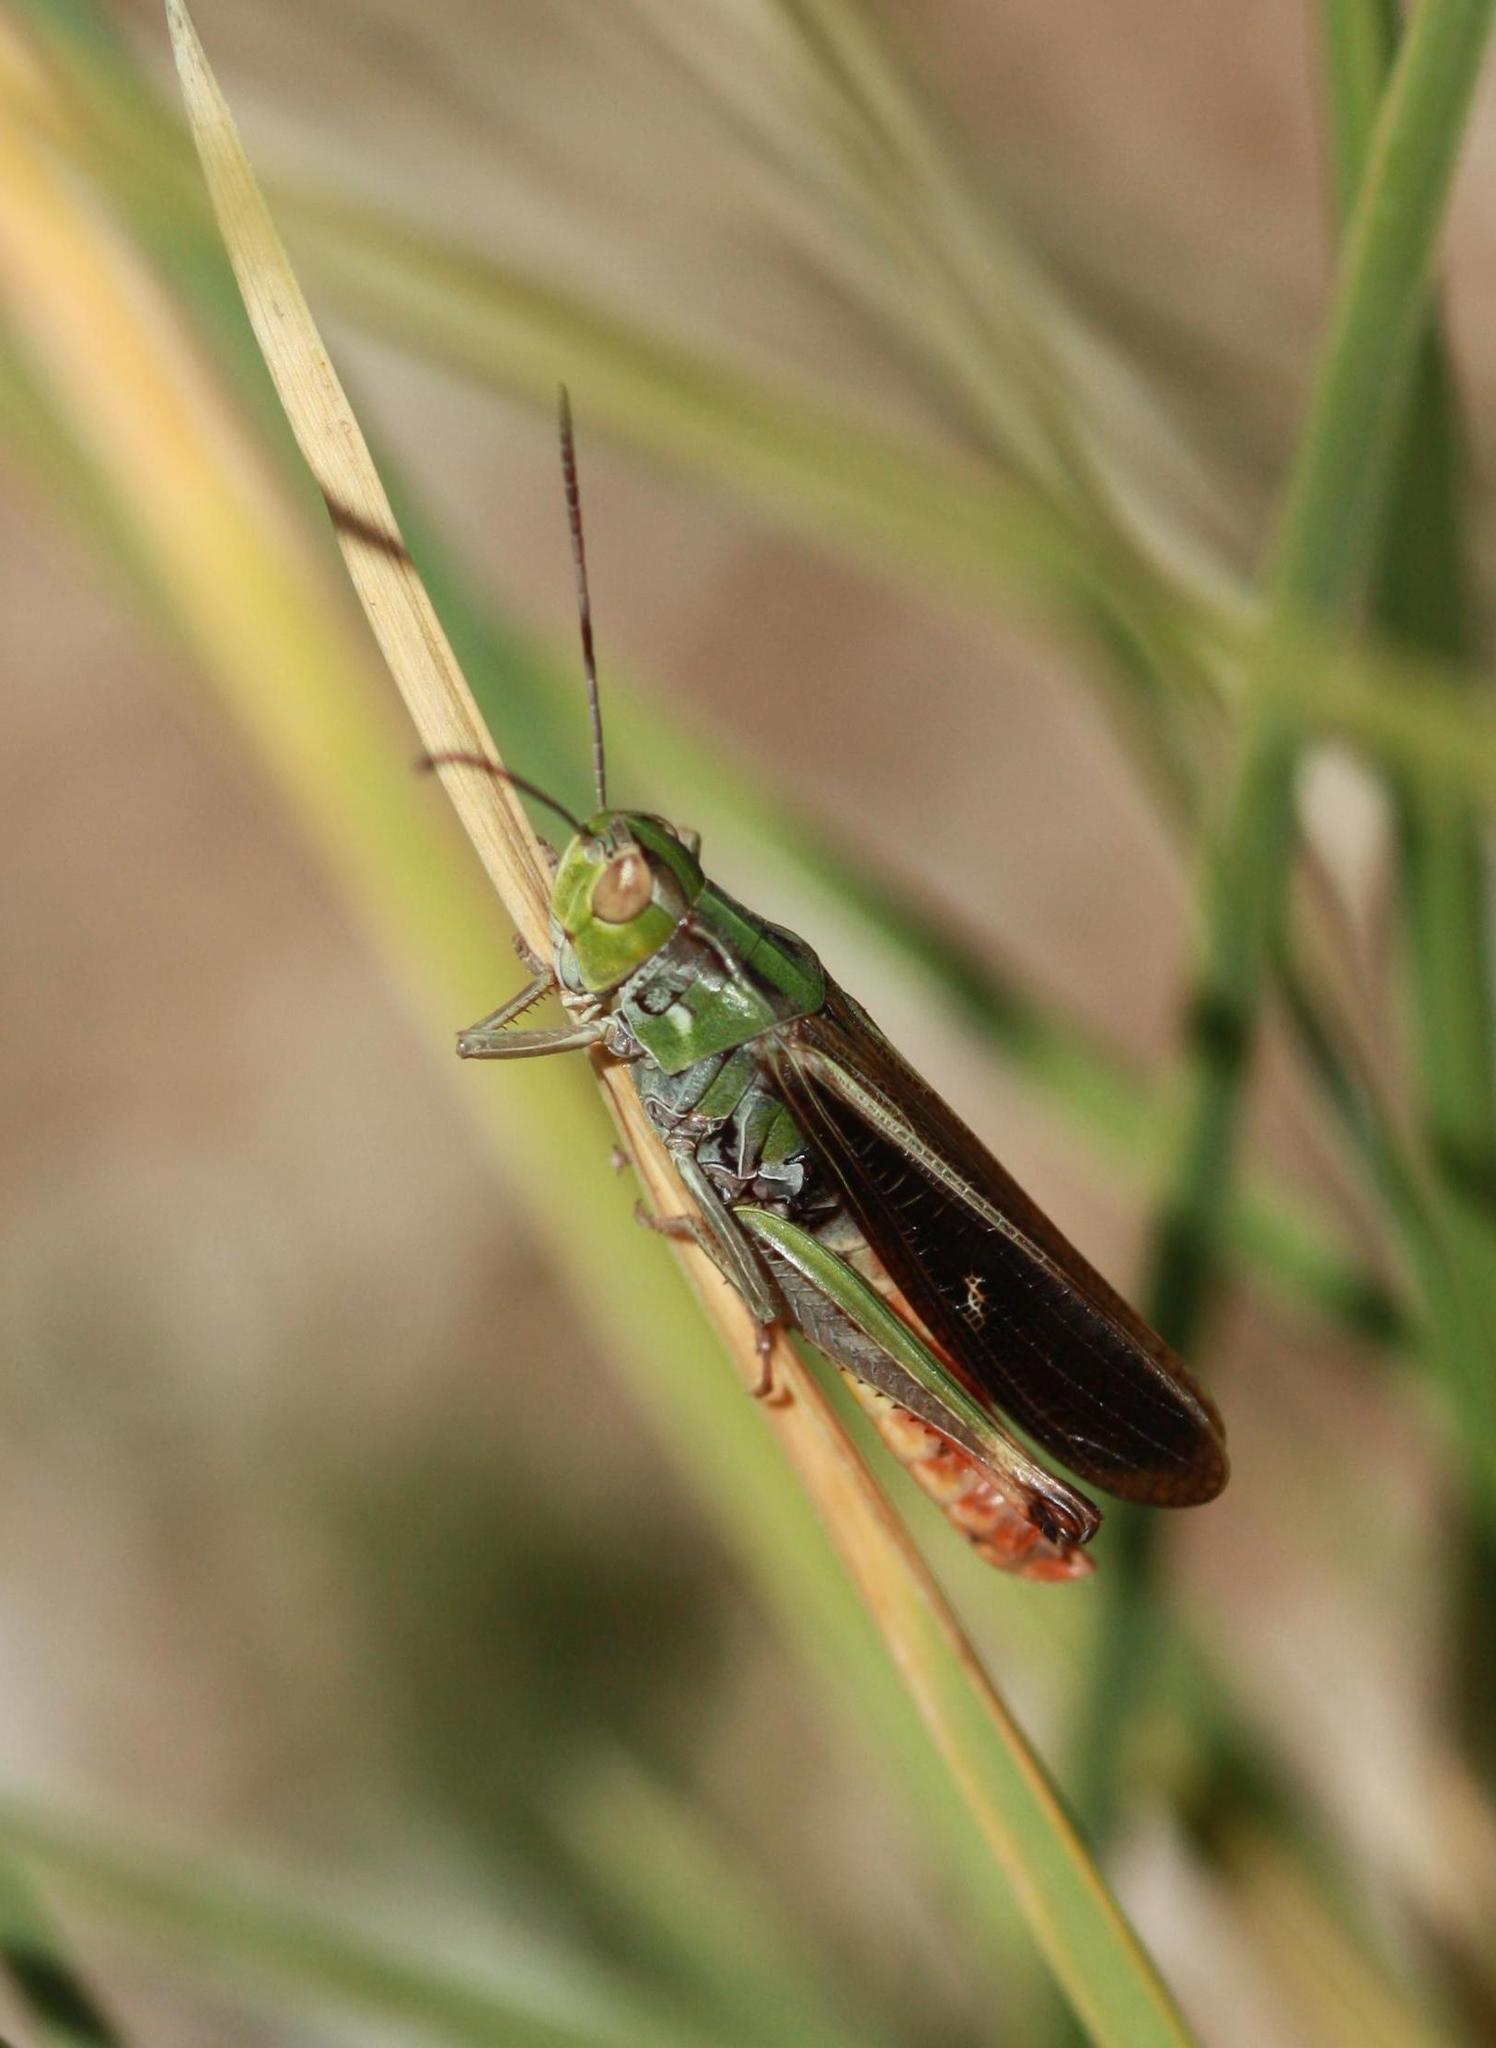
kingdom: Animalia
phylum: Arthropoda
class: Insecta
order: Orthoptera
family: Acrididae
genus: Stenobothrus
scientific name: Stenobothrus rubicundulus
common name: Wing-buzzing grasshopper
